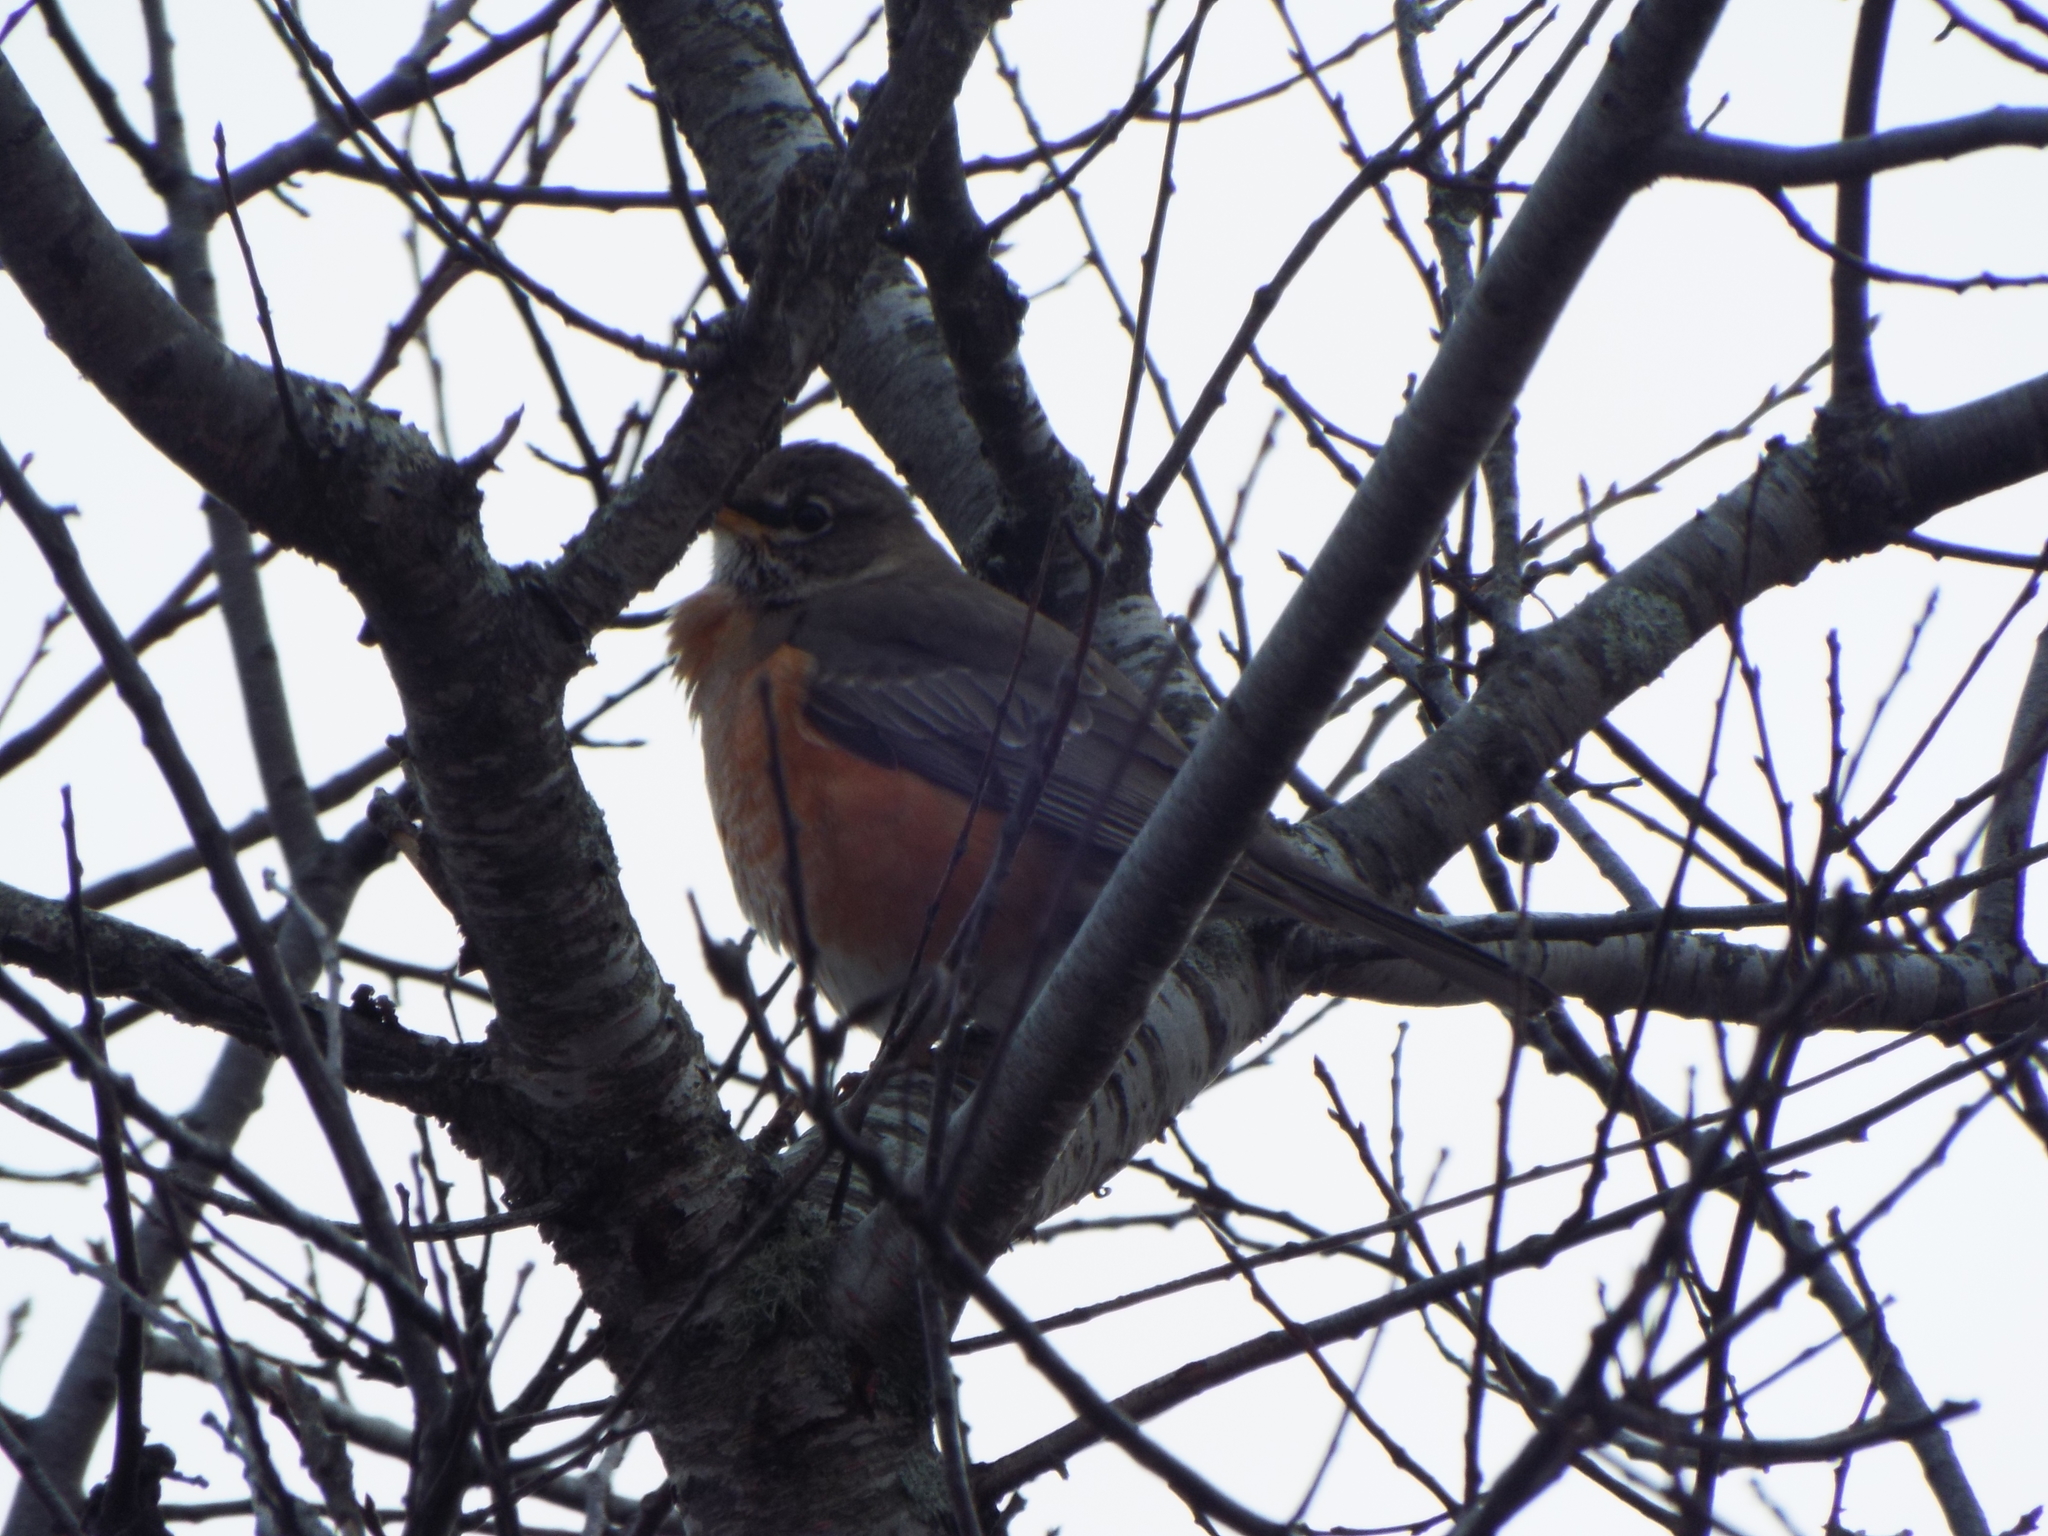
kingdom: Animalia
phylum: Chordata
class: Aves
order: Passeriformes
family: Turdidae
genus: Turdus
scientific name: Turdus migratorius
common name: American robin
